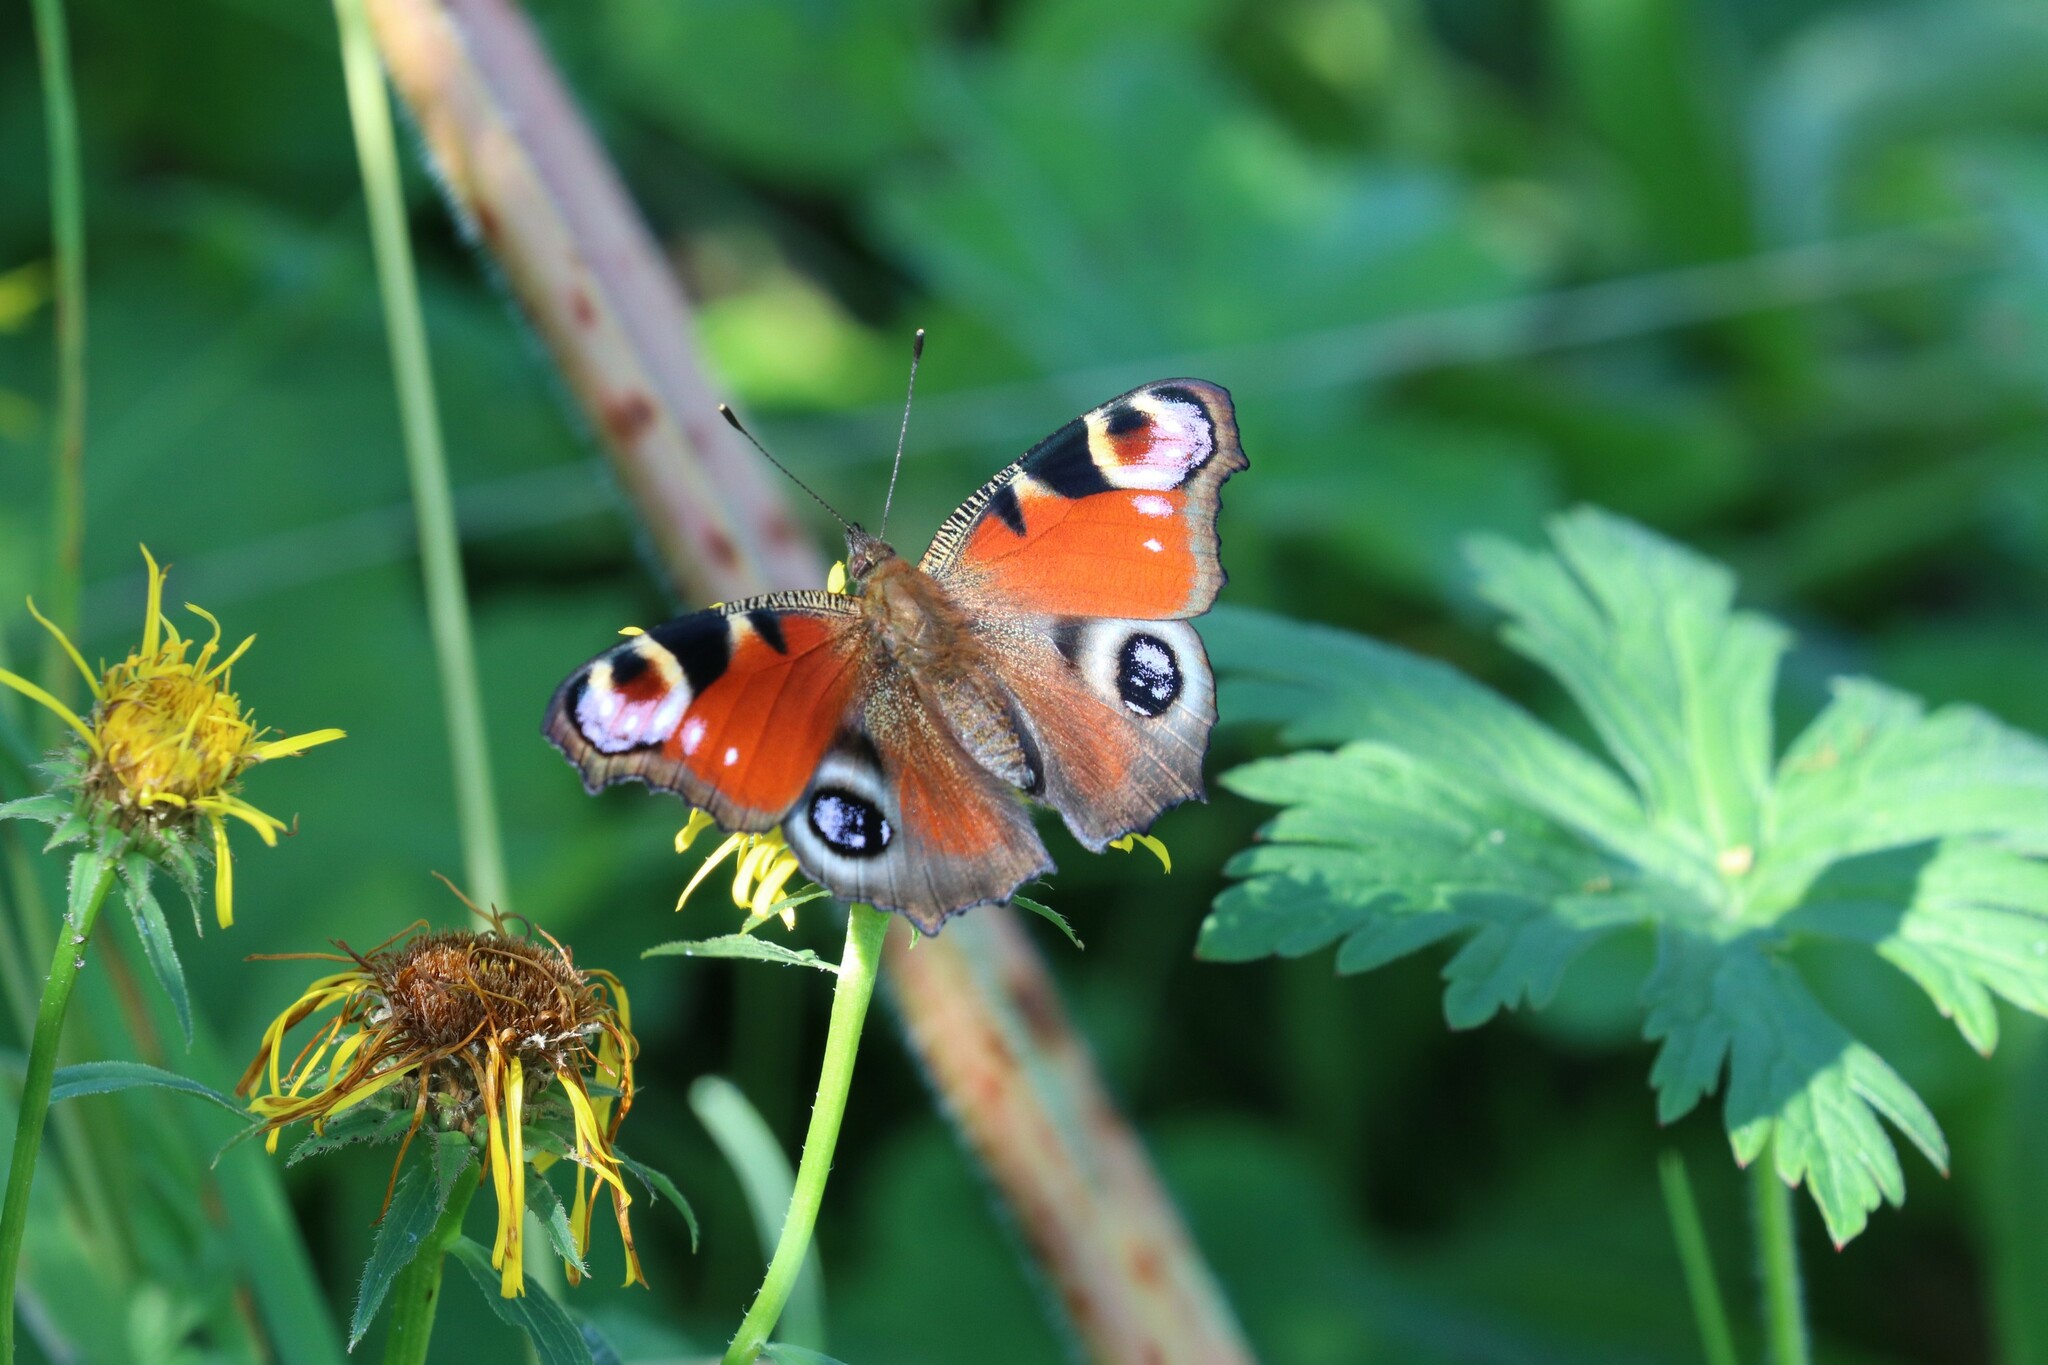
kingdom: Animalia
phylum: Arthropoda
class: Insecta
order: Lepidoptera
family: Nymphalidae
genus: Aglais
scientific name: Aglais io
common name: Peacock
